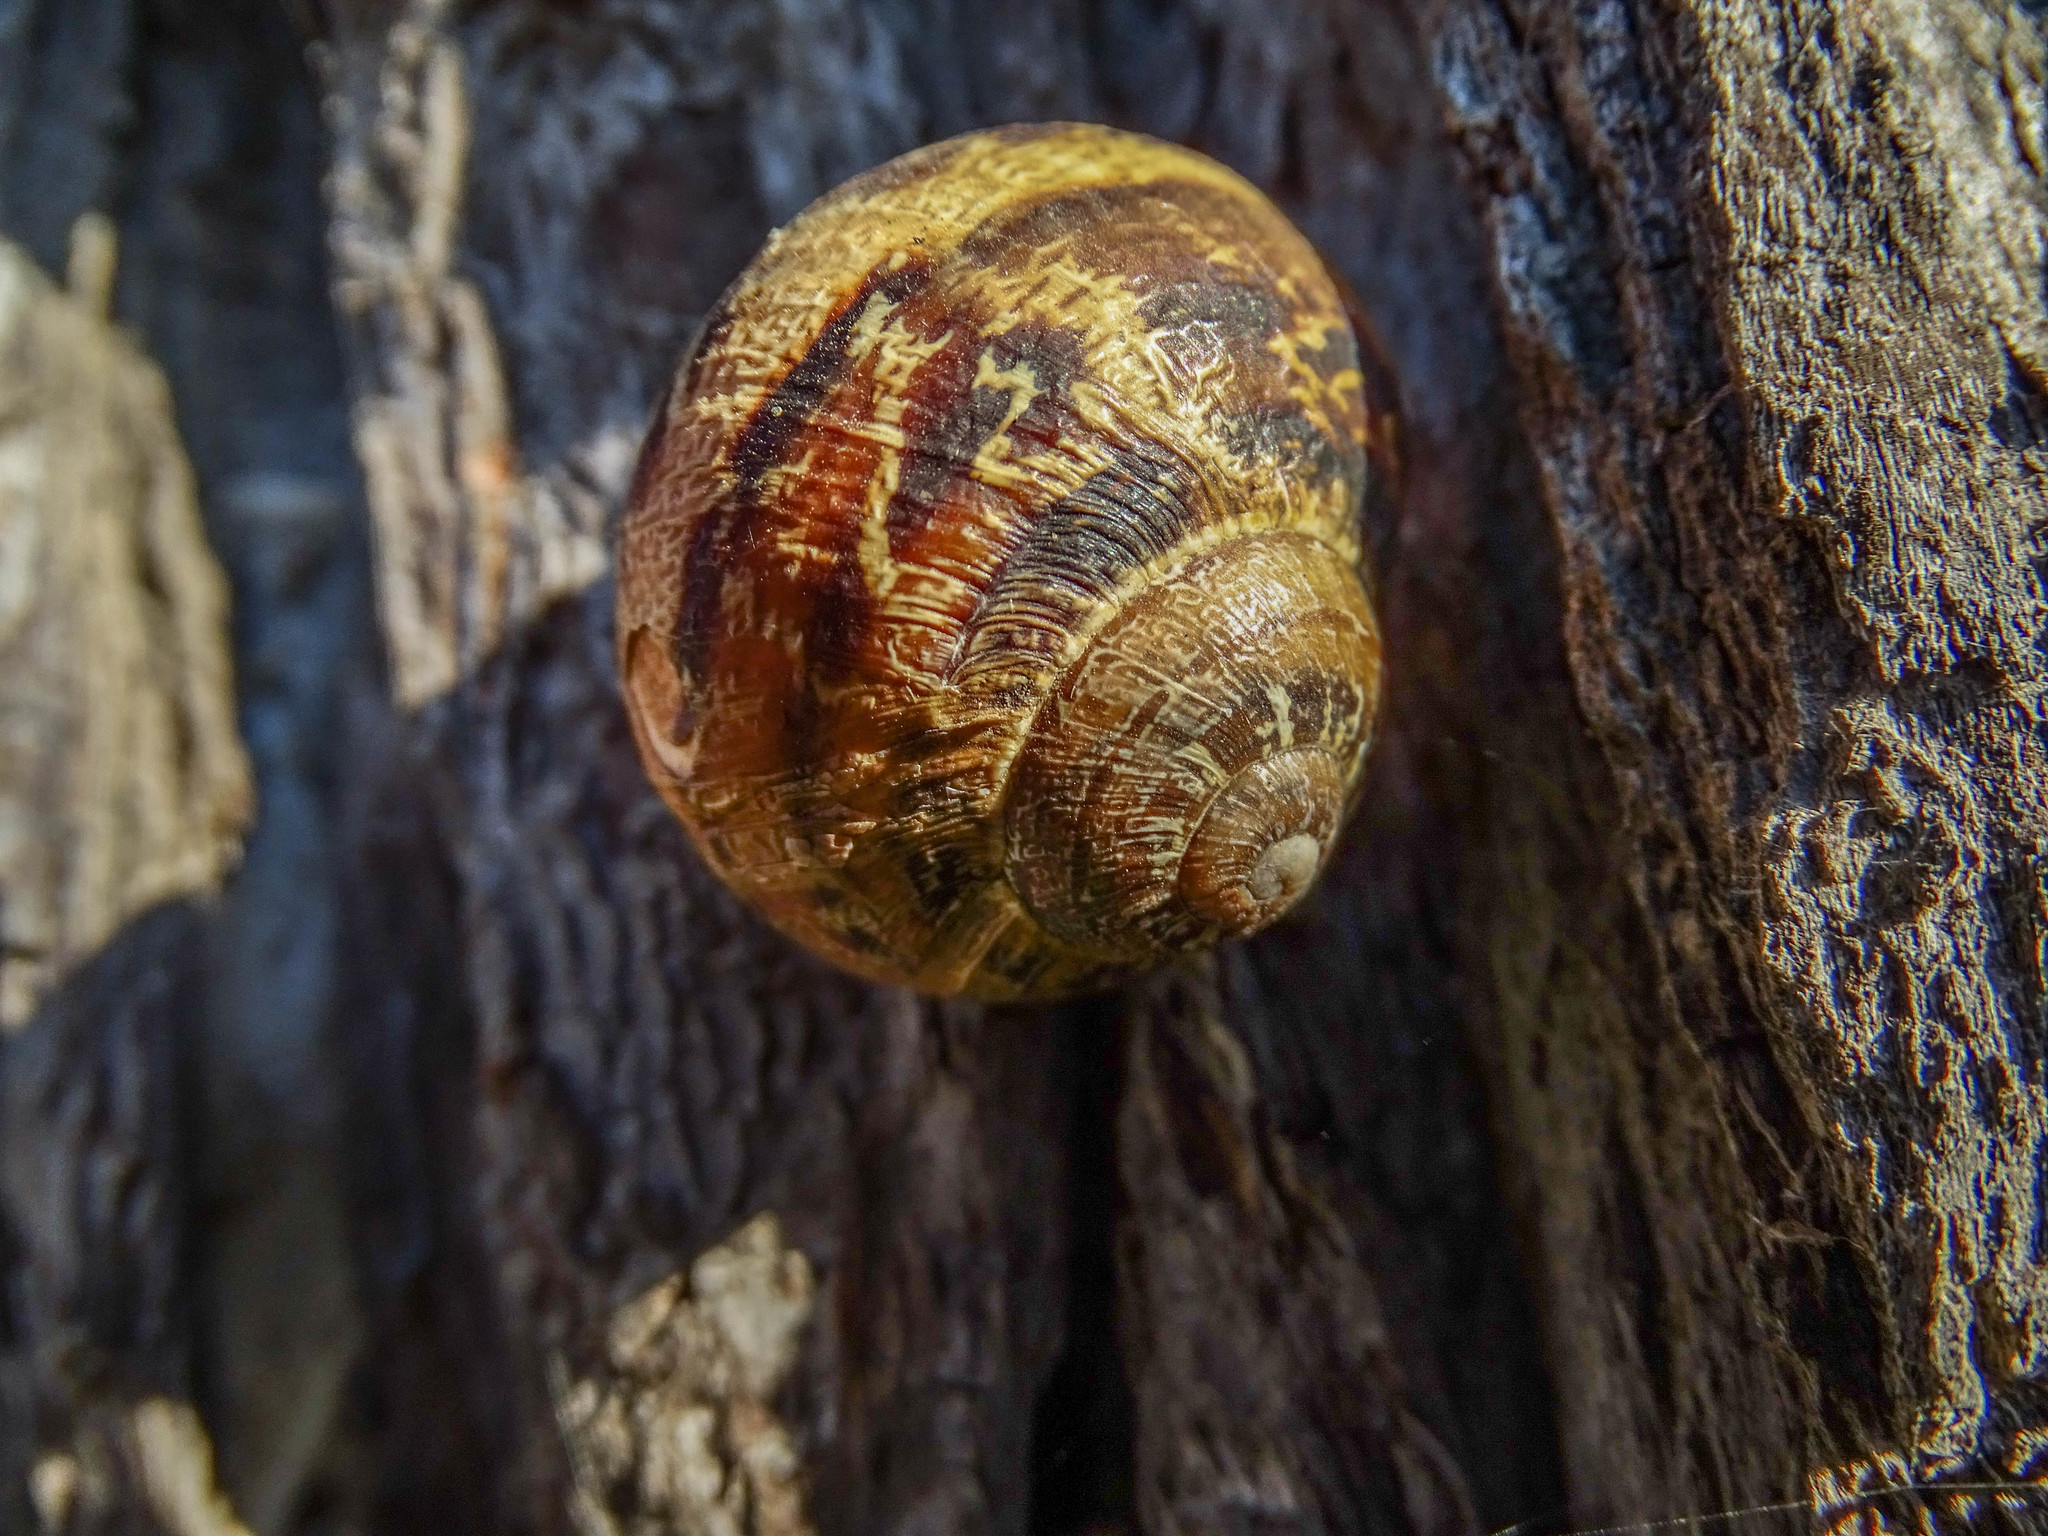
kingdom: Animalia
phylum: Mollusca
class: Gastropoda
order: Stylommatophora
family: Helicidae
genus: Cornu
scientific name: Cornu aspersum
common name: Brown garden snail
